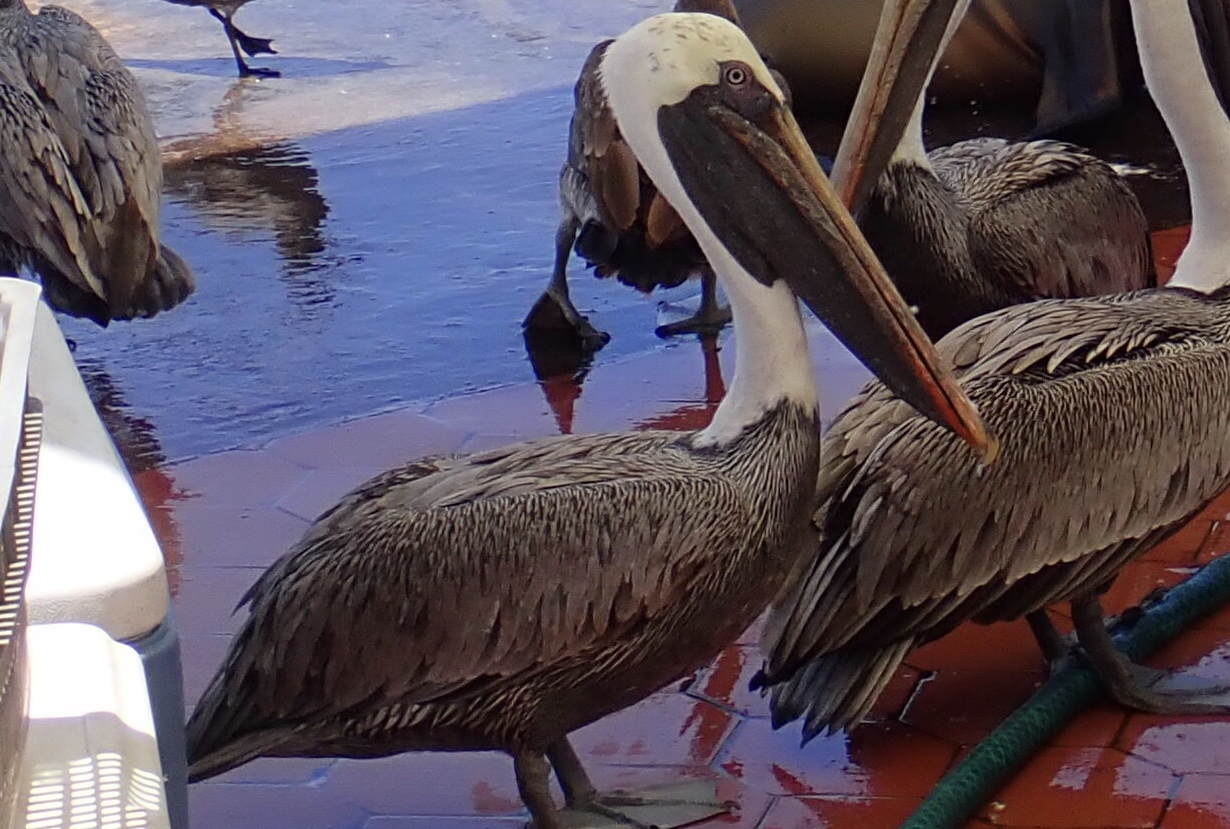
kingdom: Animalia
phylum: Chordata
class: Aves
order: Pelecaniformes
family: Pelecanidae
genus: Pelecanus
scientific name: Pelecanus occidentalis
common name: Brown pelican
